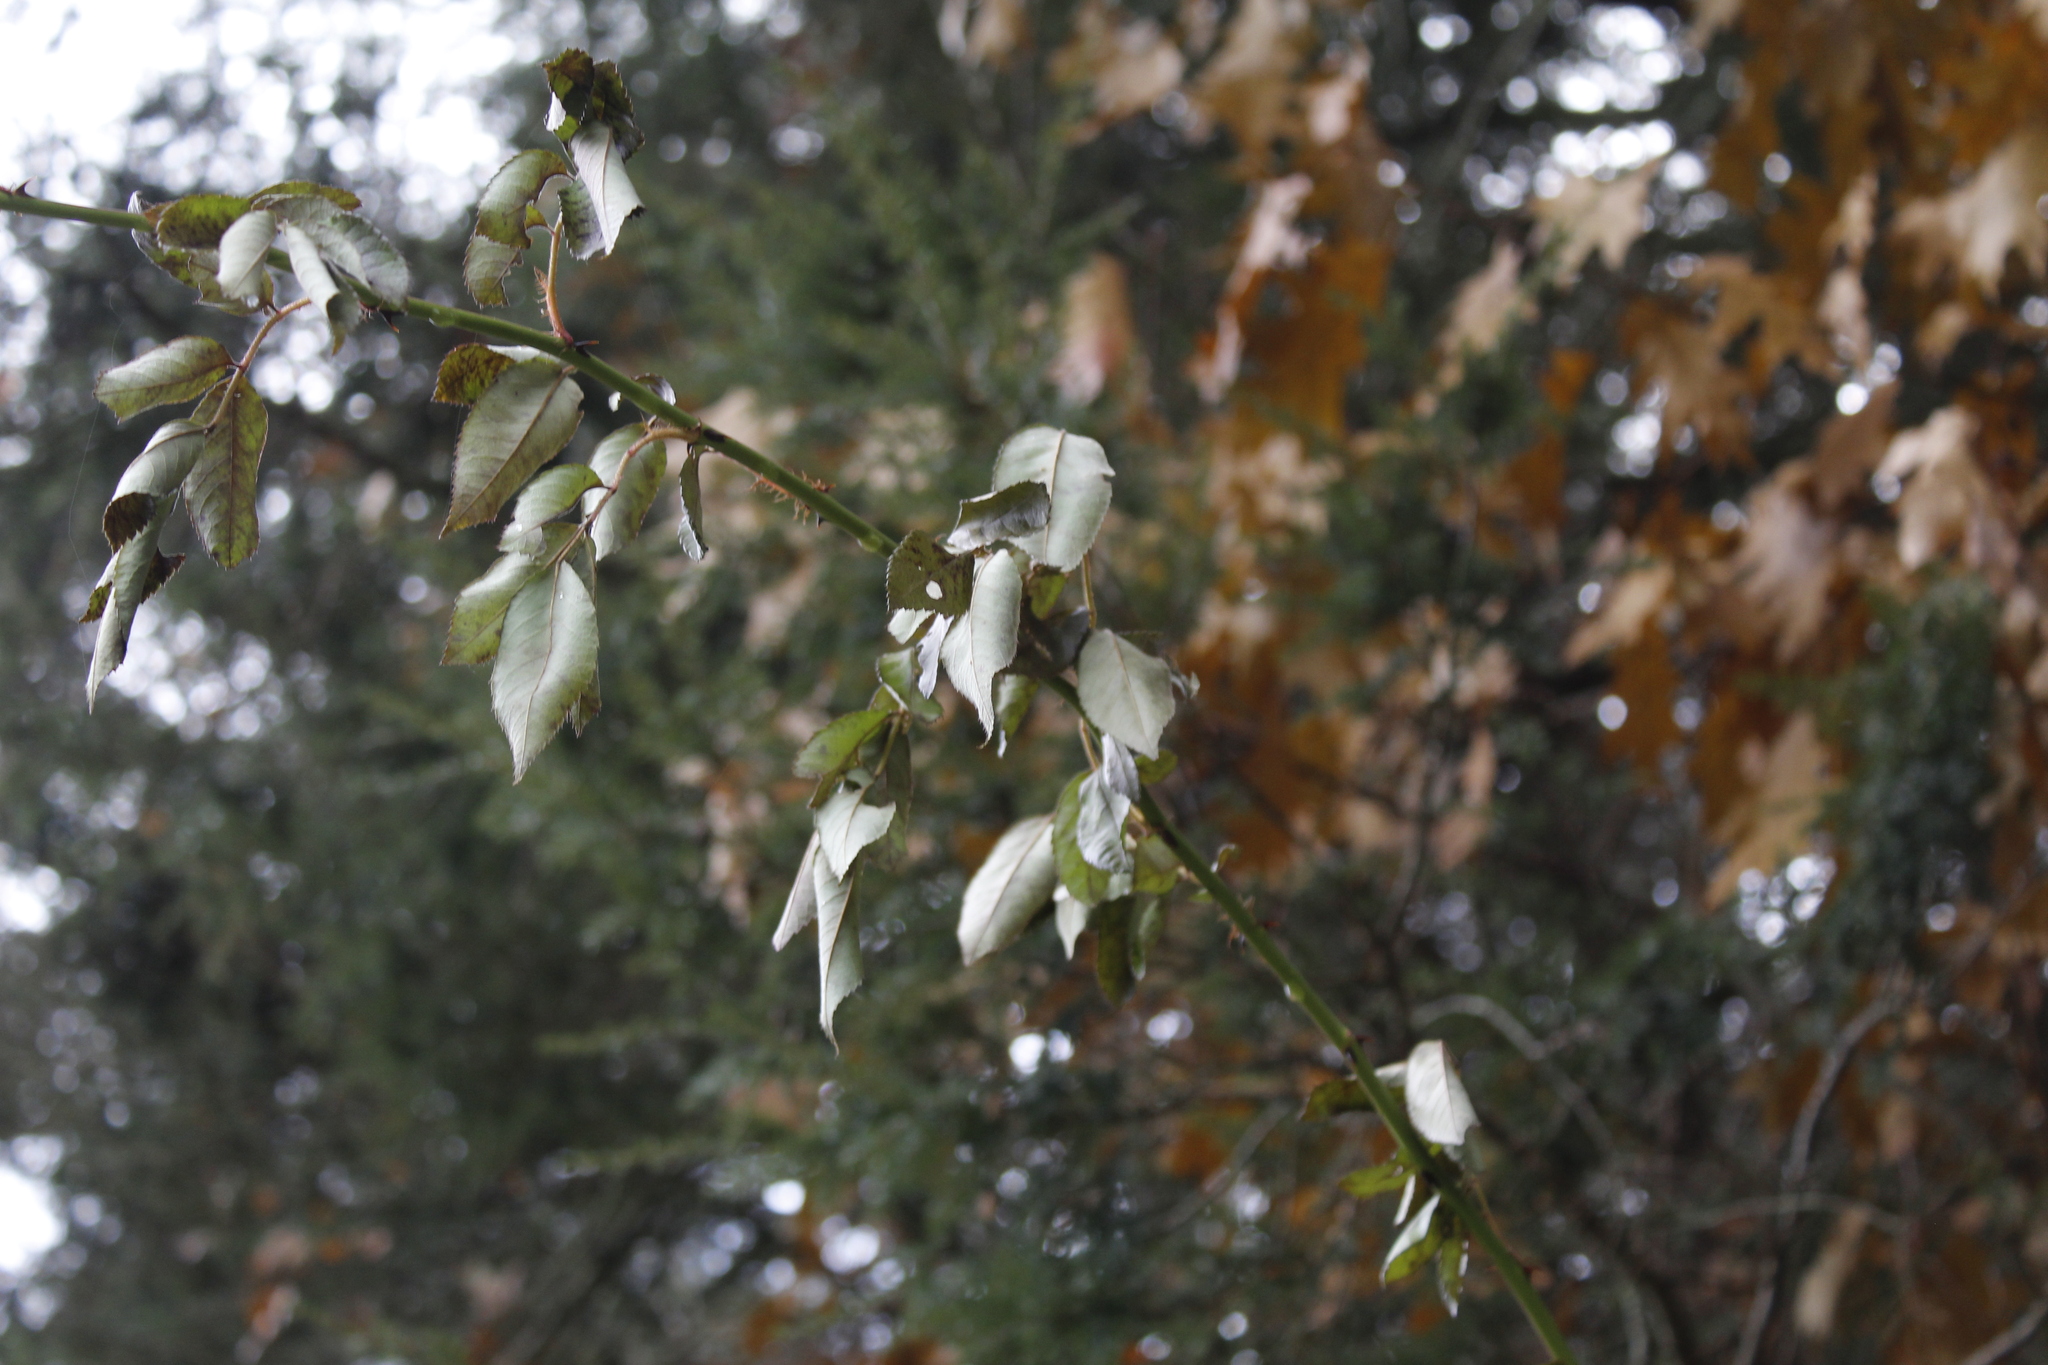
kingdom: Plantae
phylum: Tracheophyta
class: Magnoliopsida
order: Rosales
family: Rosaceae
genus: Rosa
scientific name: Rosa multiflora
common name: Multiflora rose
